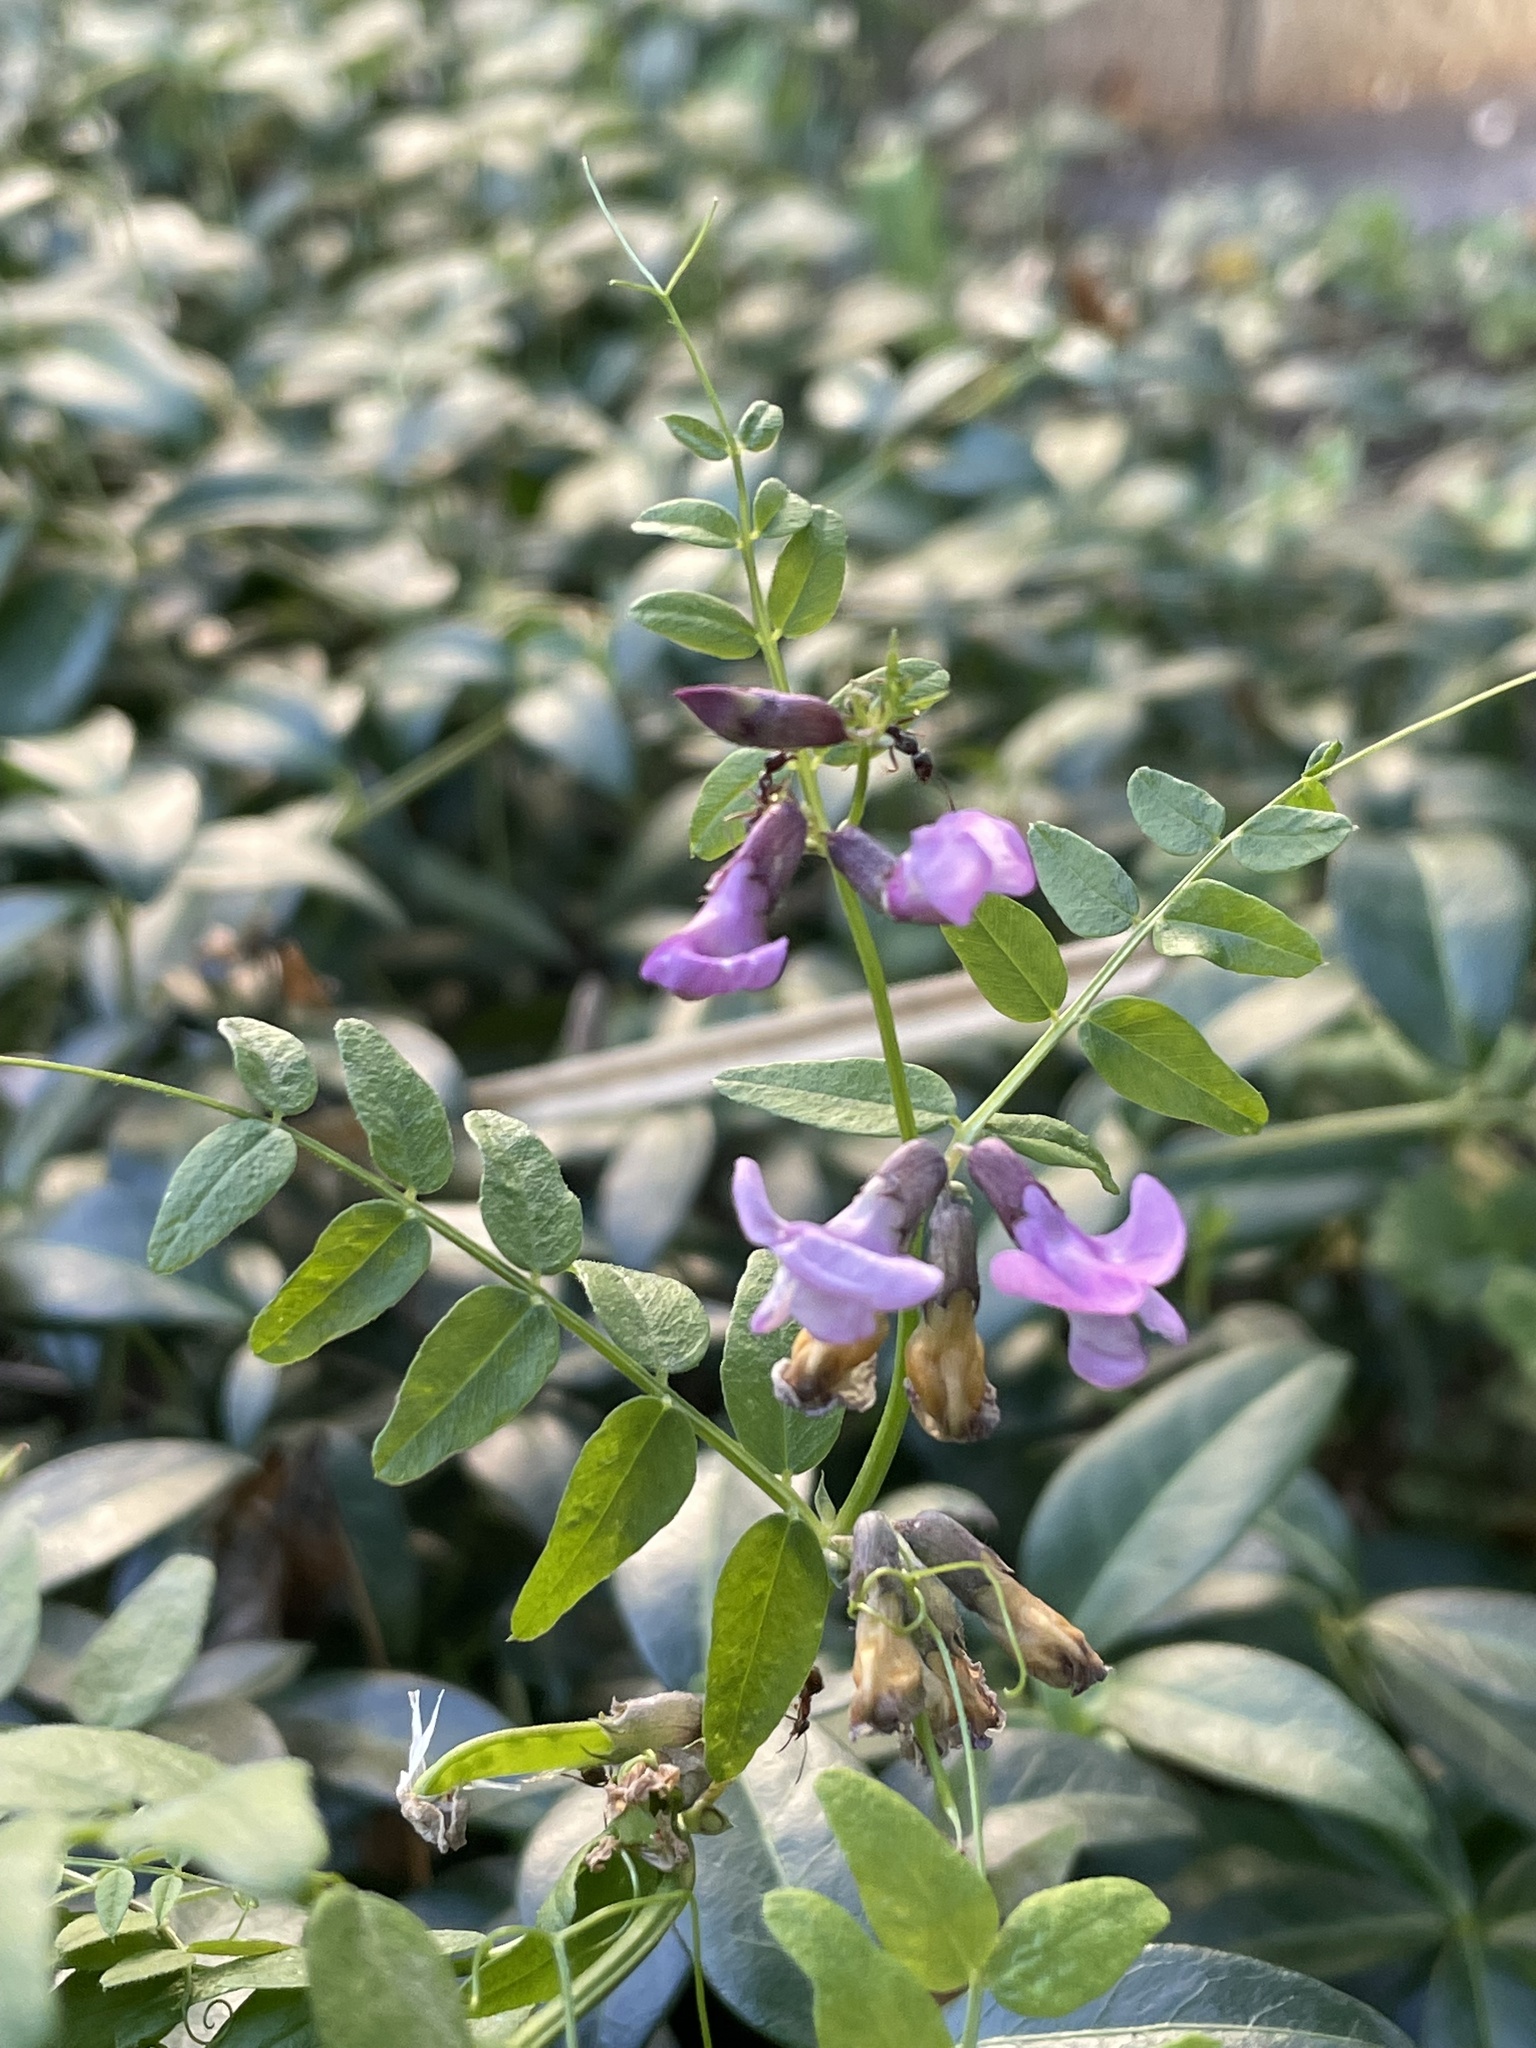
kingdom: Plantae
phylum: Tracheophyta
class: Magnoliopsida
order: Fabales
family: Fabaceae
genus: Vicia
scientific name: Vicia sepium
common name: Bush vetch
